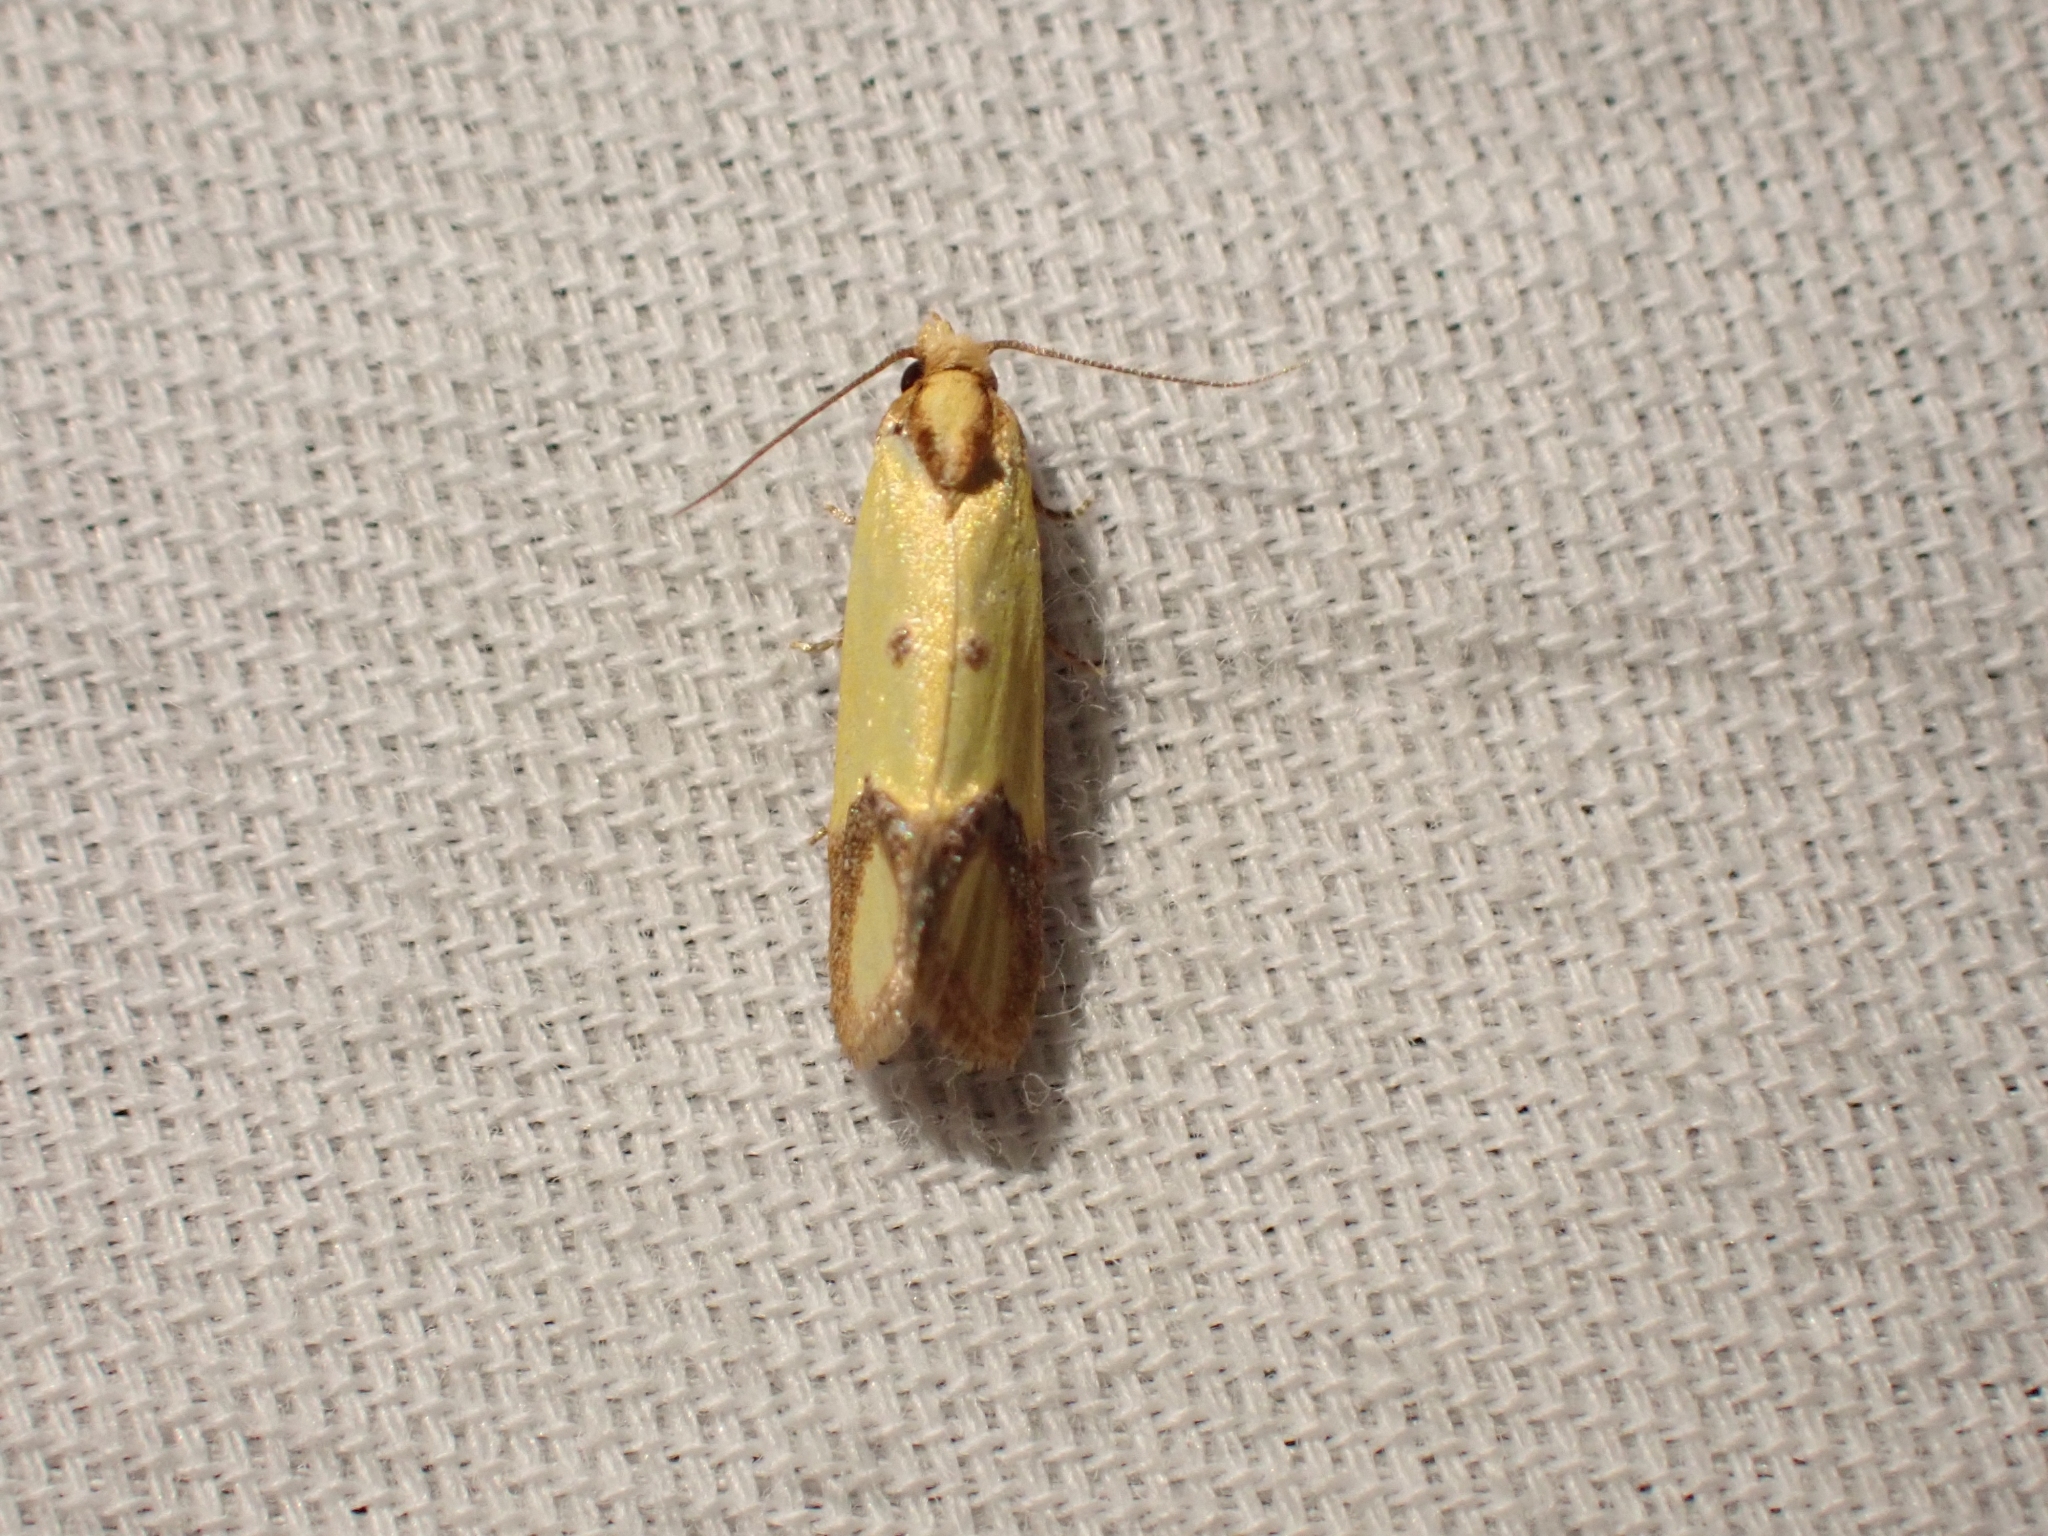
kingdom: Animalia
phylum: Arthropoda
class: Insecta
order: Lepidoptera
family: Tortricidae
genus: Agapeta
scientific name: Agapeta zoegana
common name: Sulfur knapweed root moth
